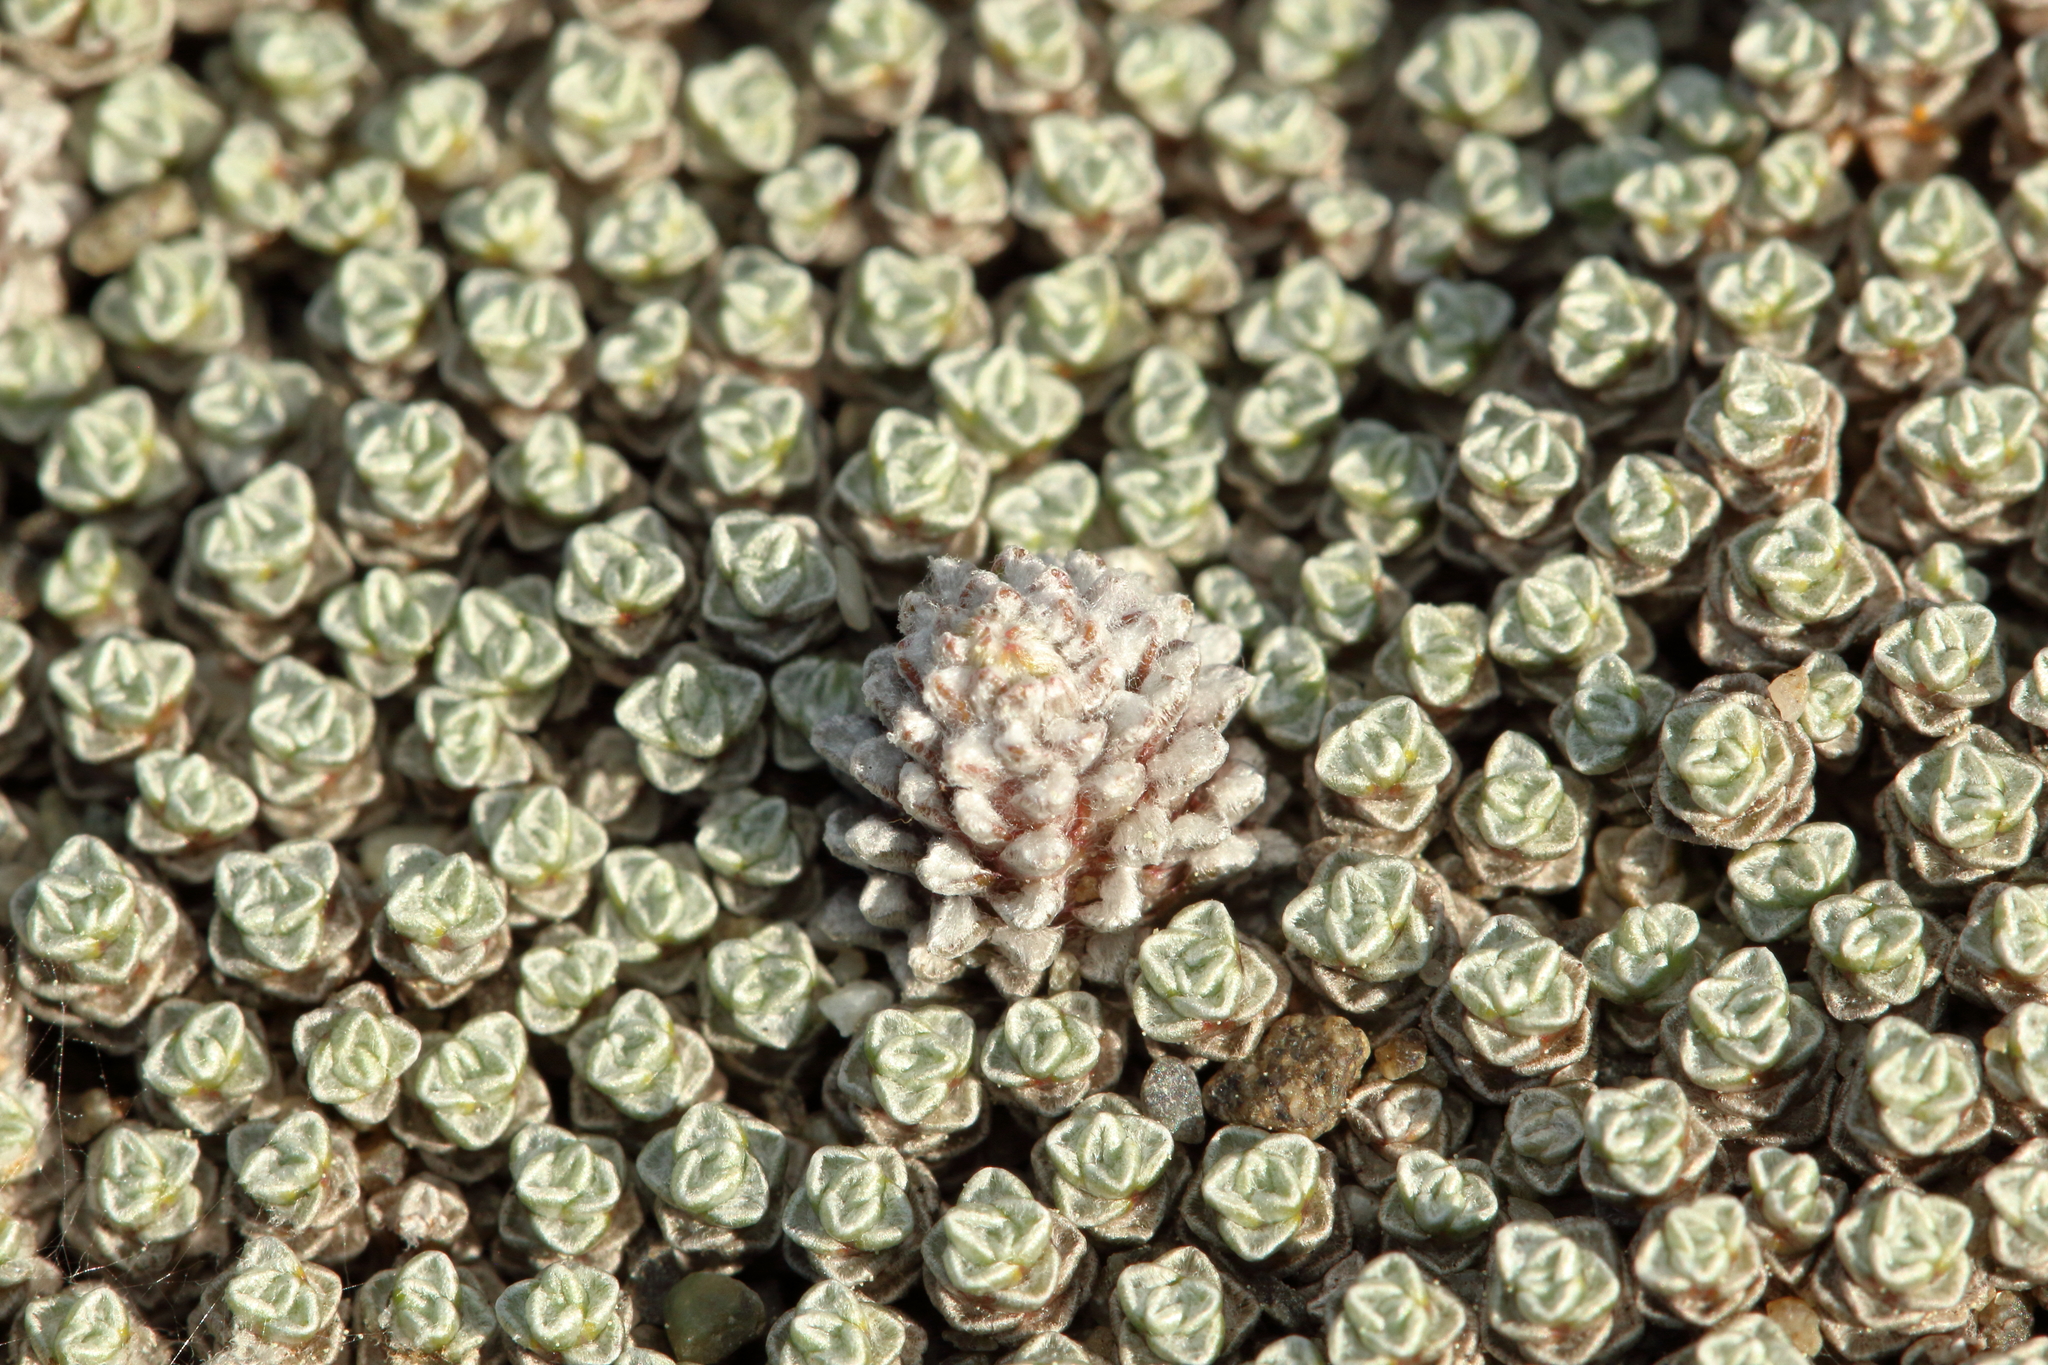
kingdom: Plantae
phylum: Tracheophyta
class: Magnoliopsida
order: Asterales
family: Asteraceae
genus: Raoulia
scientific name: Raoulia australis
